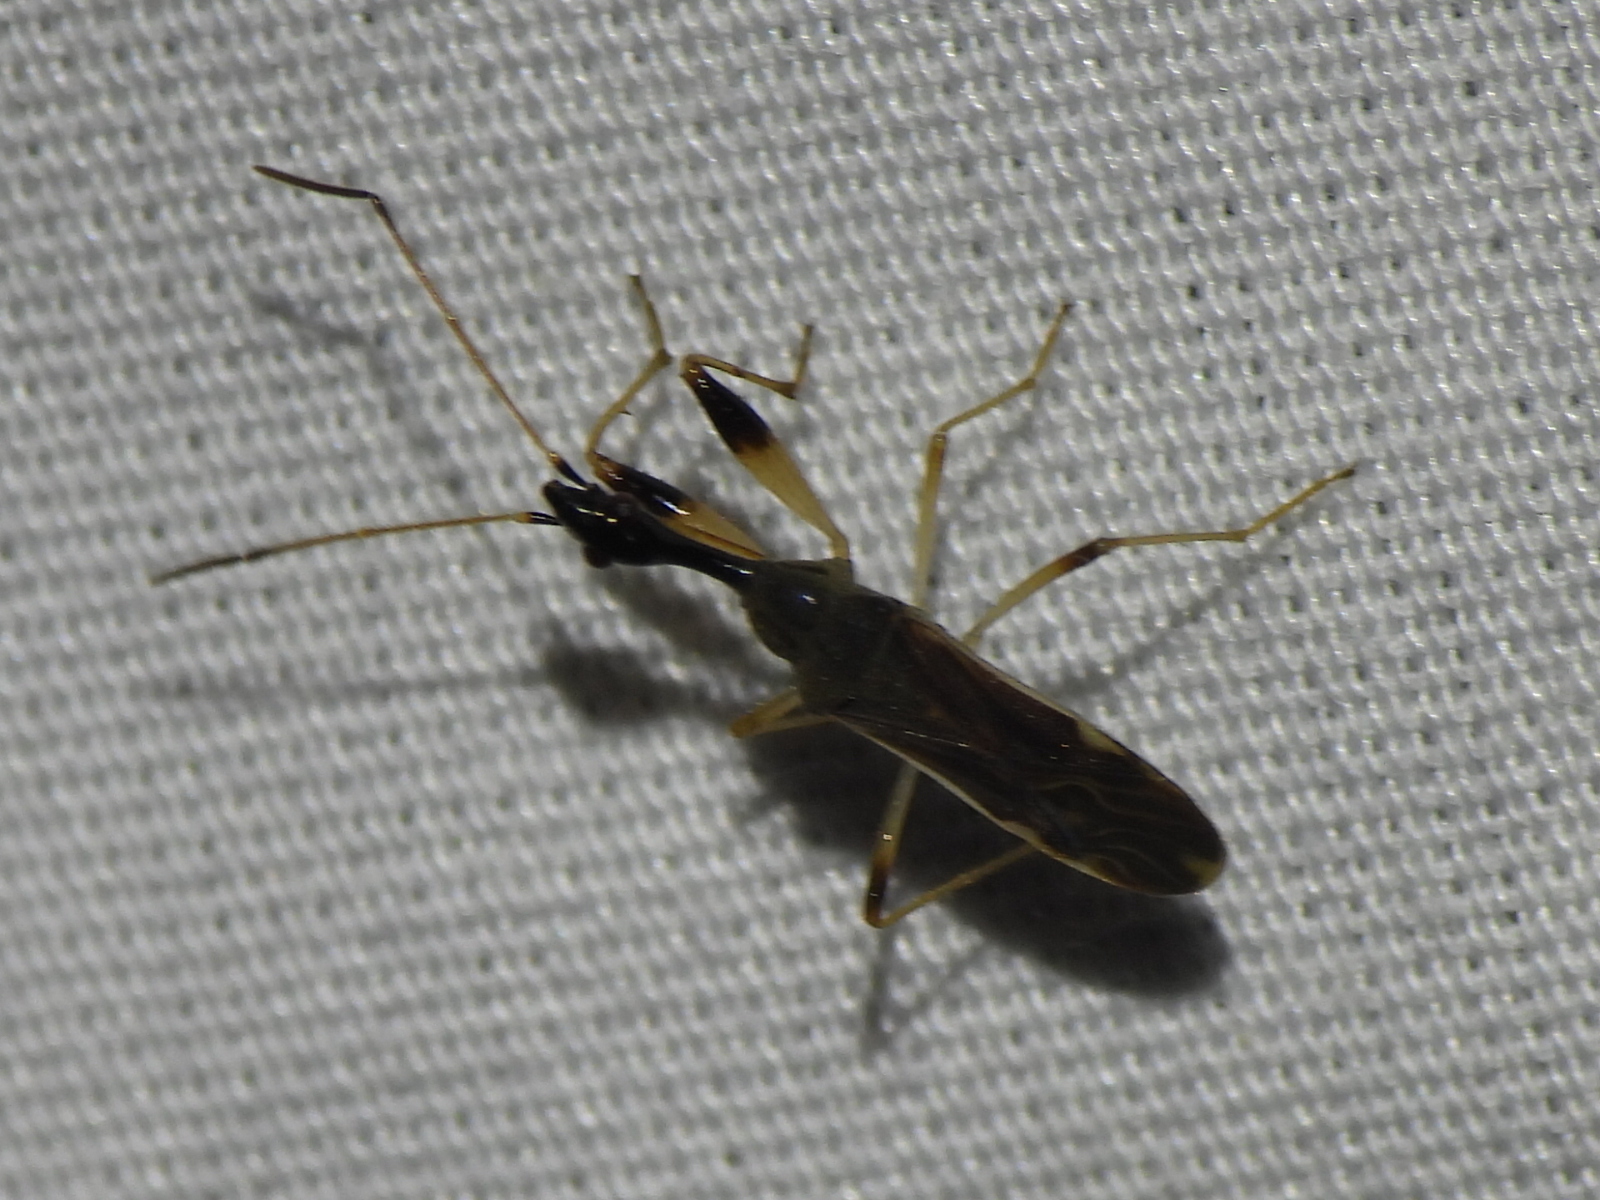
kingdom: Animalia
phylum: Arthropoda
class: Insecta
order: Hemiptera
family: Rhyparochromidae
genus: Myodocha
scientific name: Myodocha serripes
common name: Long-necked seed bug
